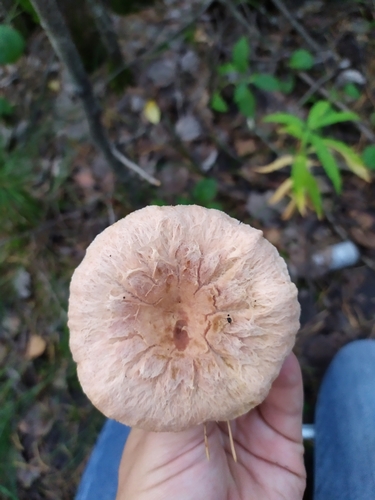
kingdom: Fungi
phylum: Basidiomycota
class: Agaricomycetes
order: Russulales
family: Russulaceae
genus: Lactarius
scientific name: Lactarius torminosus
